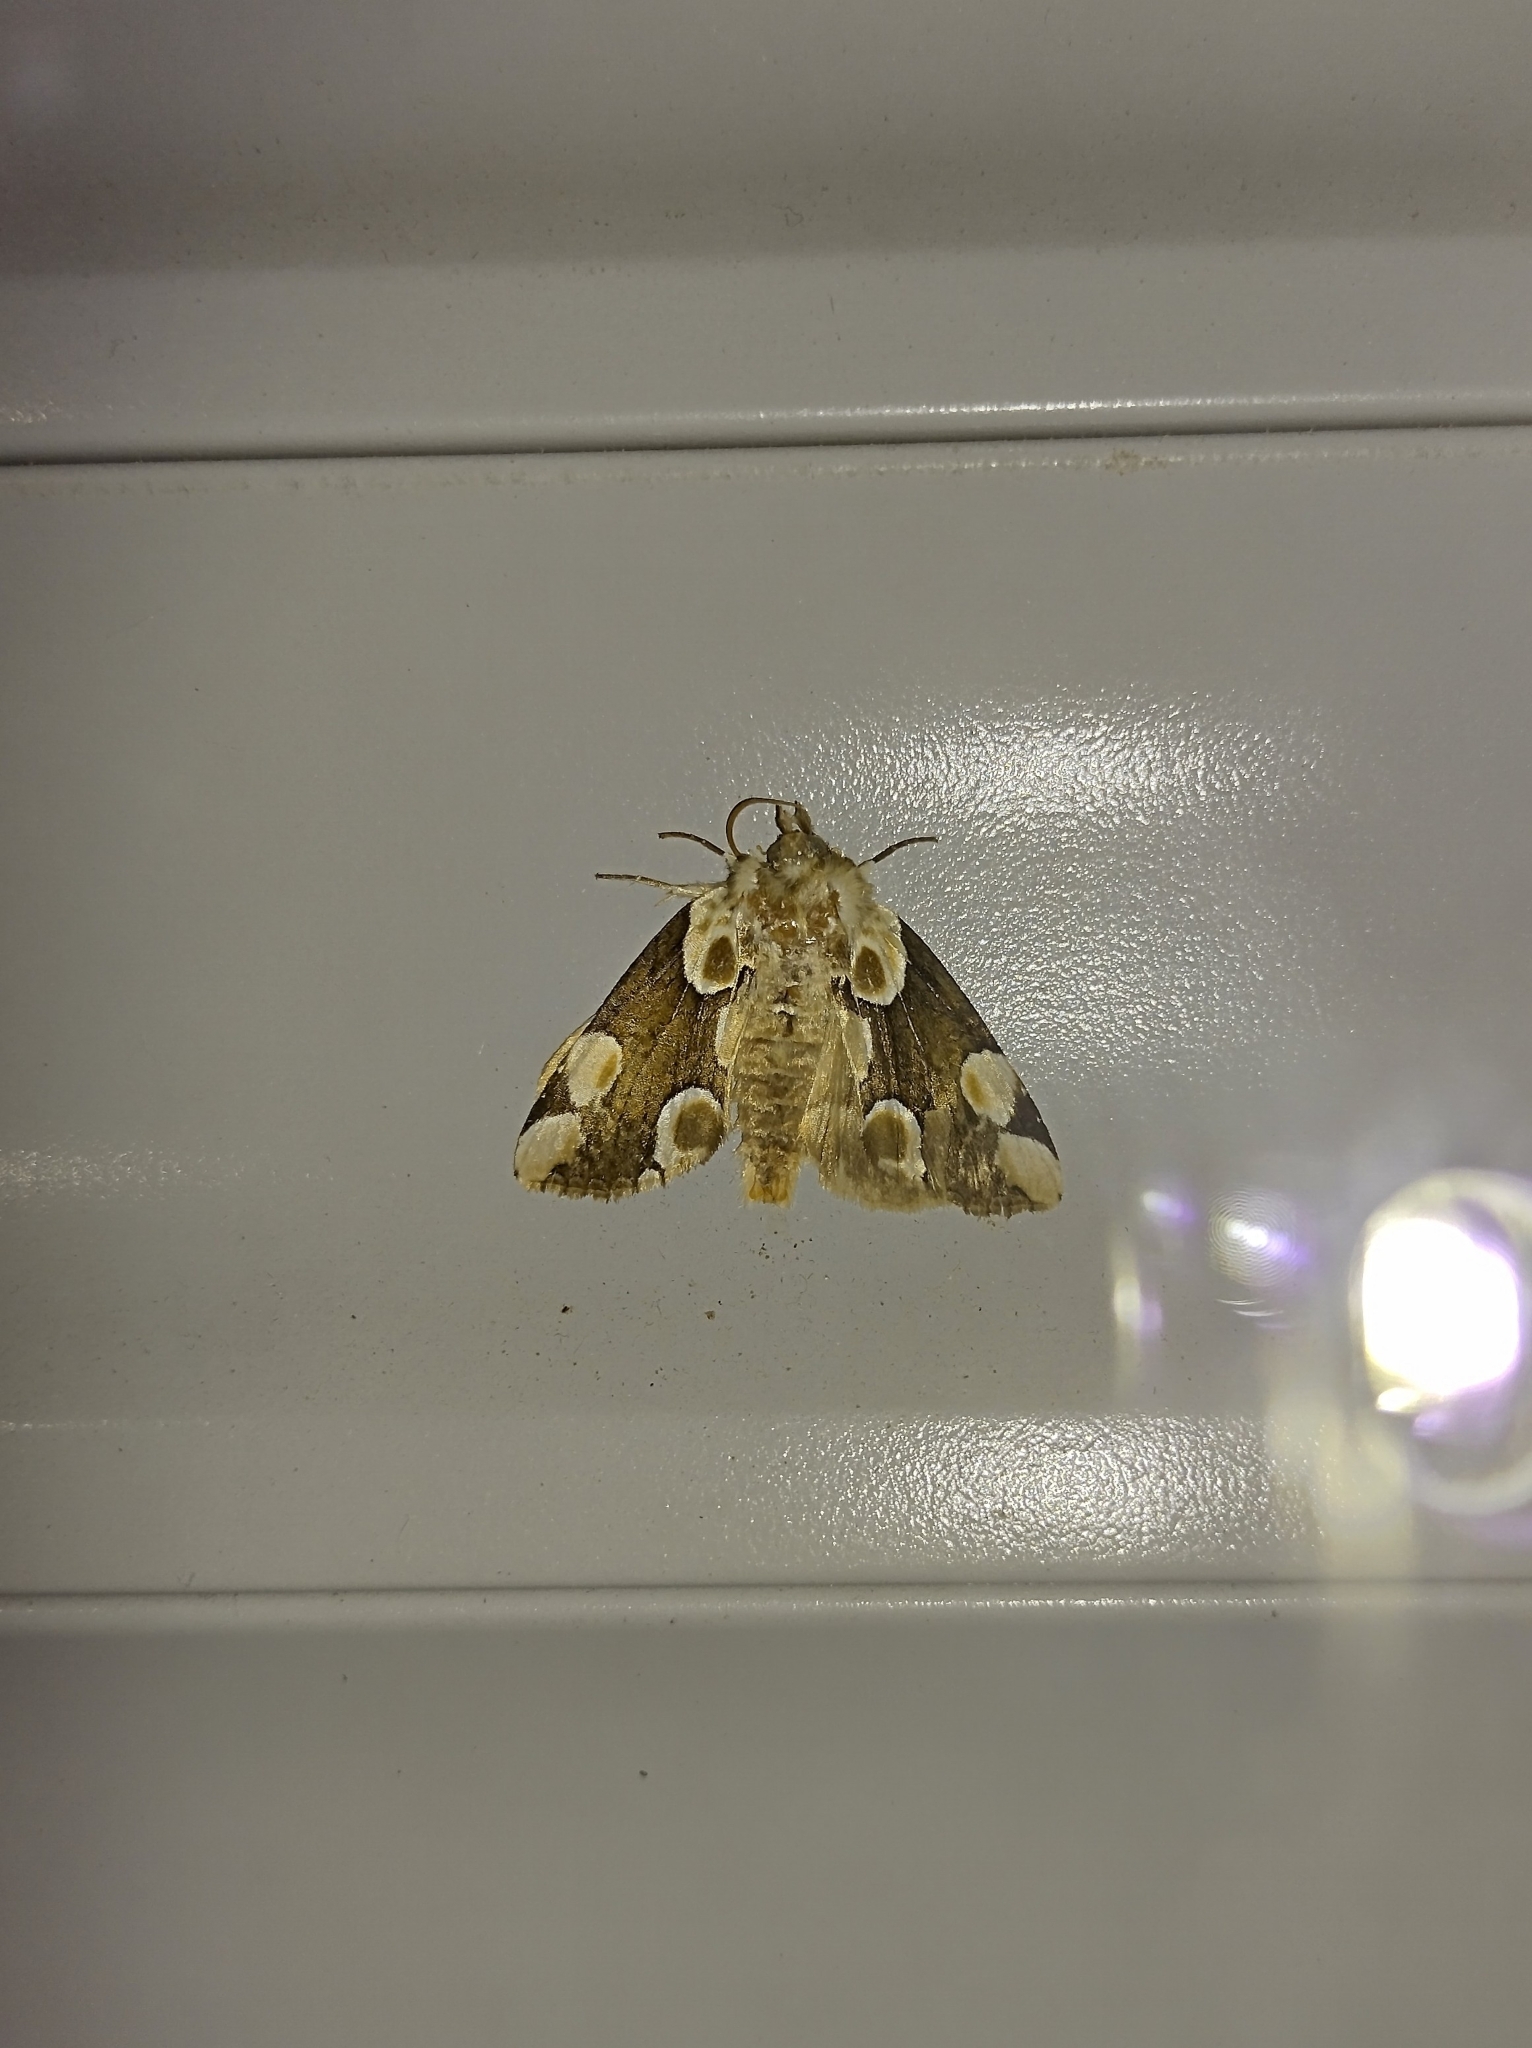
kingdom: Animalia
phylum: Arthropoda
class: Insecta
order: Lepidoptera
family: Drepanidae
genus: Thyatira
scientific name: Thyatira batis
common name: Peach blossom
